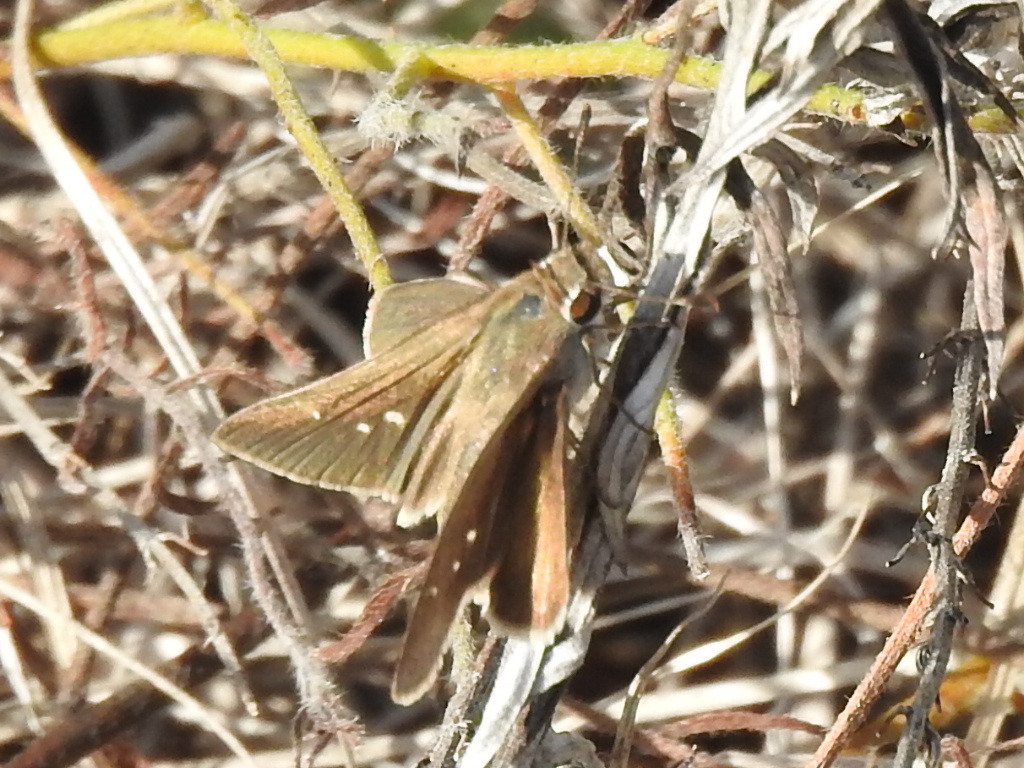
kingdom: Animalia
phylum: Arthropoda
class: Insecta
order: Lepidoptera
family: Hesperiidae
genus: Lerodea
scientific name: Lerodea eufala
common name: Eufala skipper
